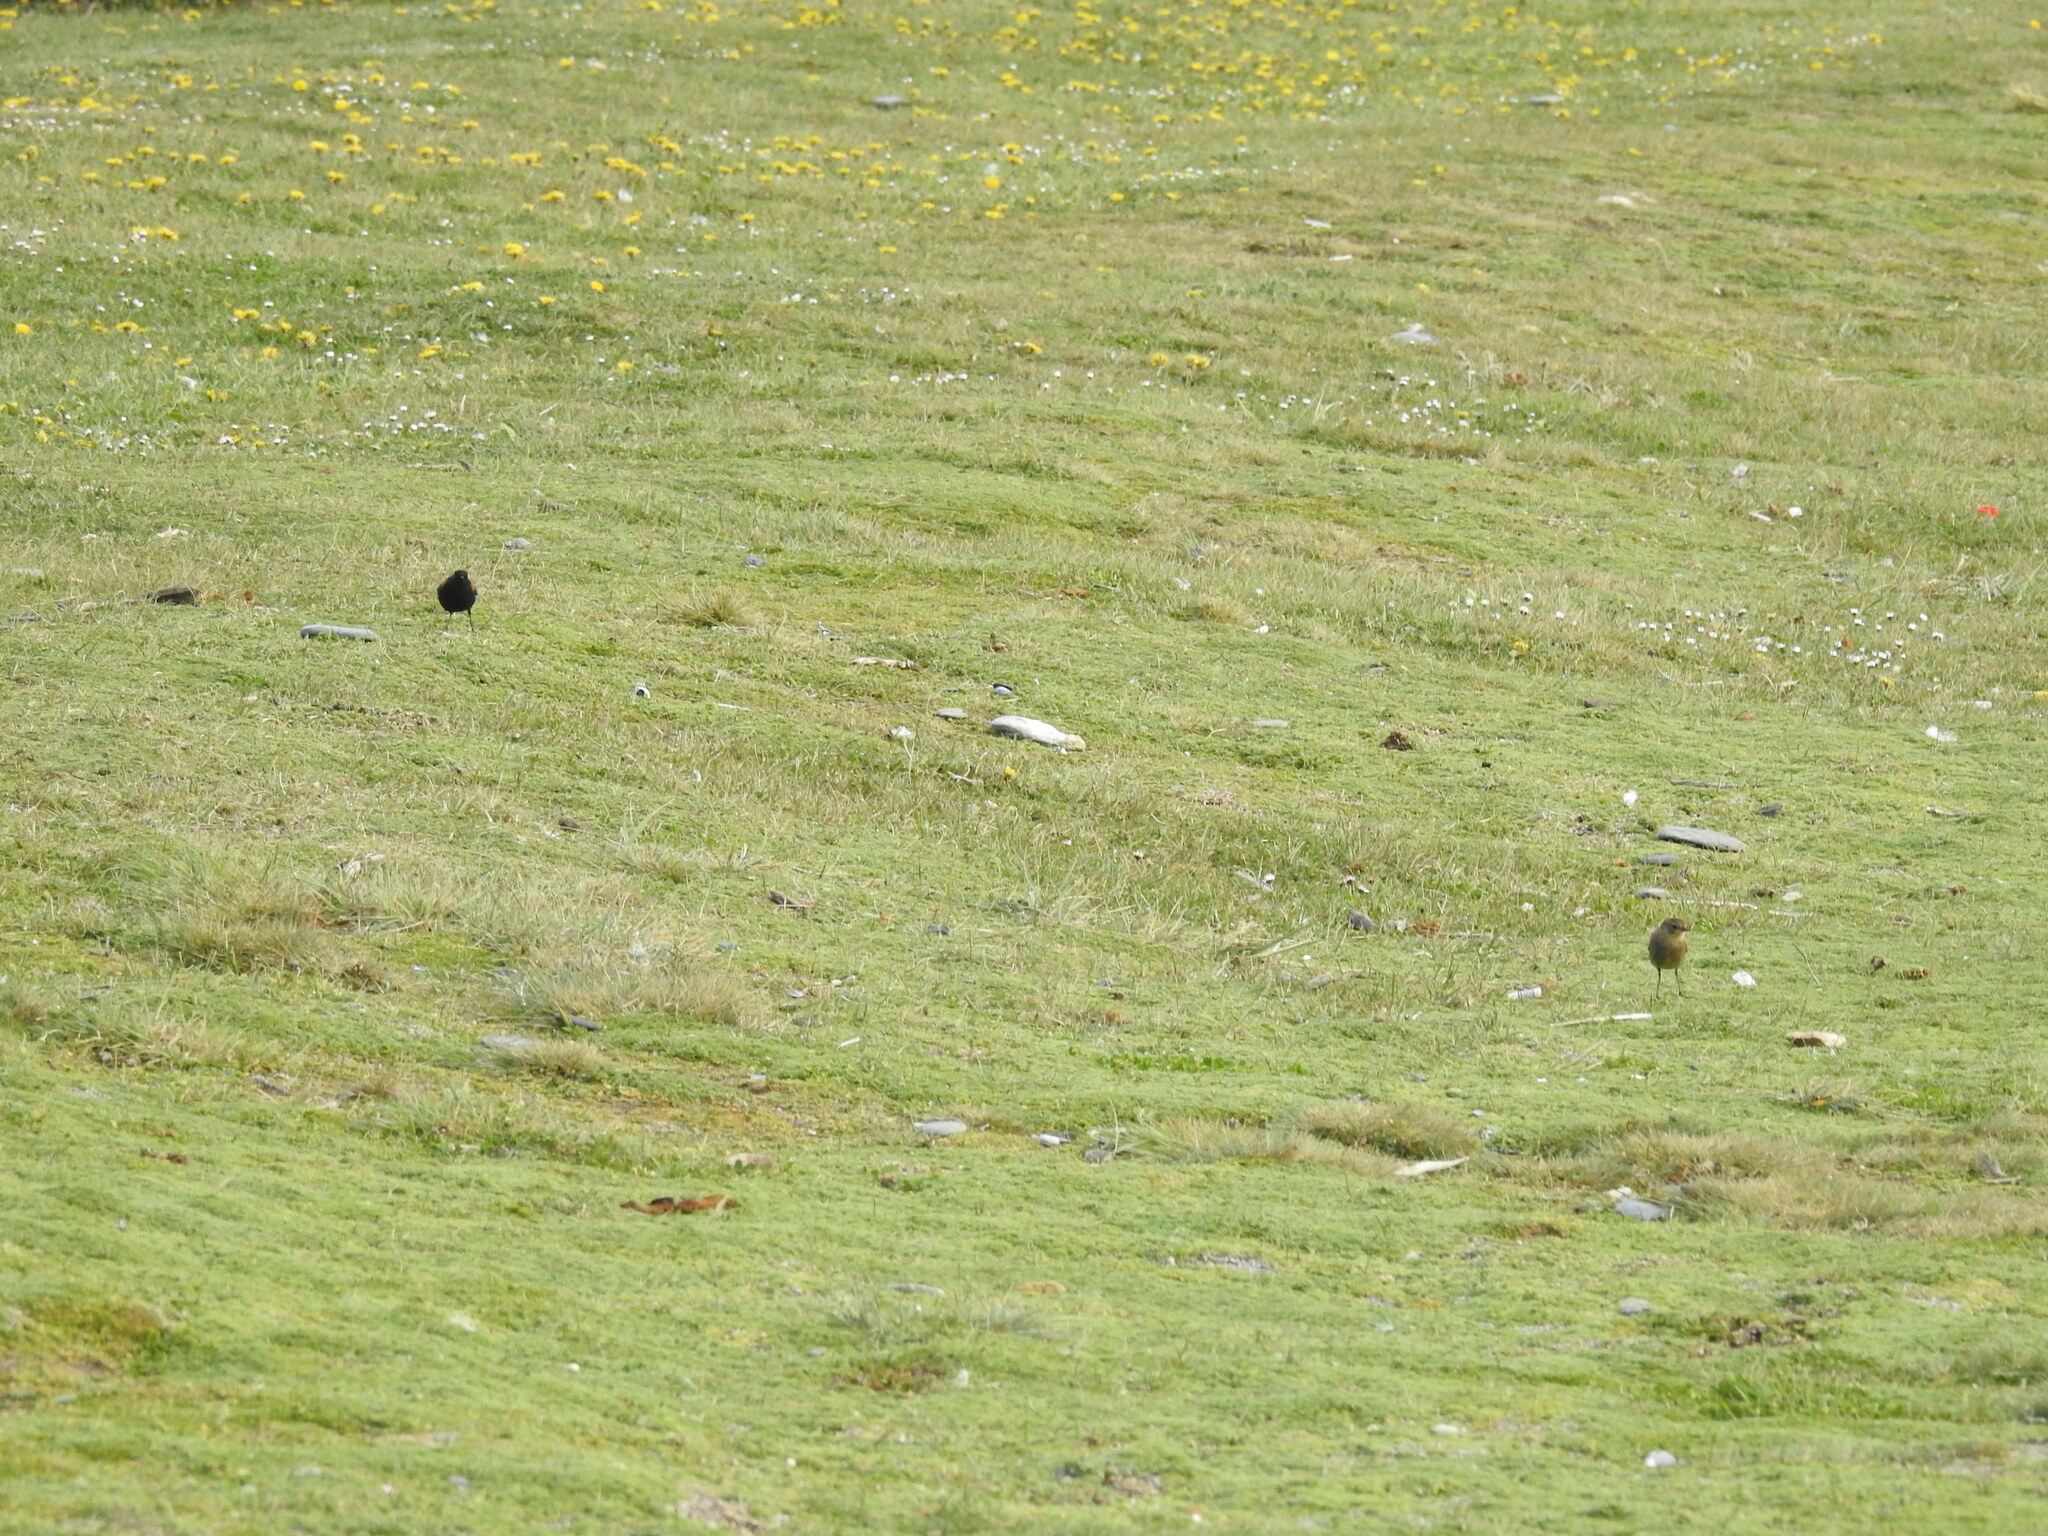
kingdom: Animalia
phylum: Chordata
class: Aves
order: Passeriformes
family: Tyrannidae
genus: Lessonia
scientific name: Lessonia rufa
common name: Austral negrito
